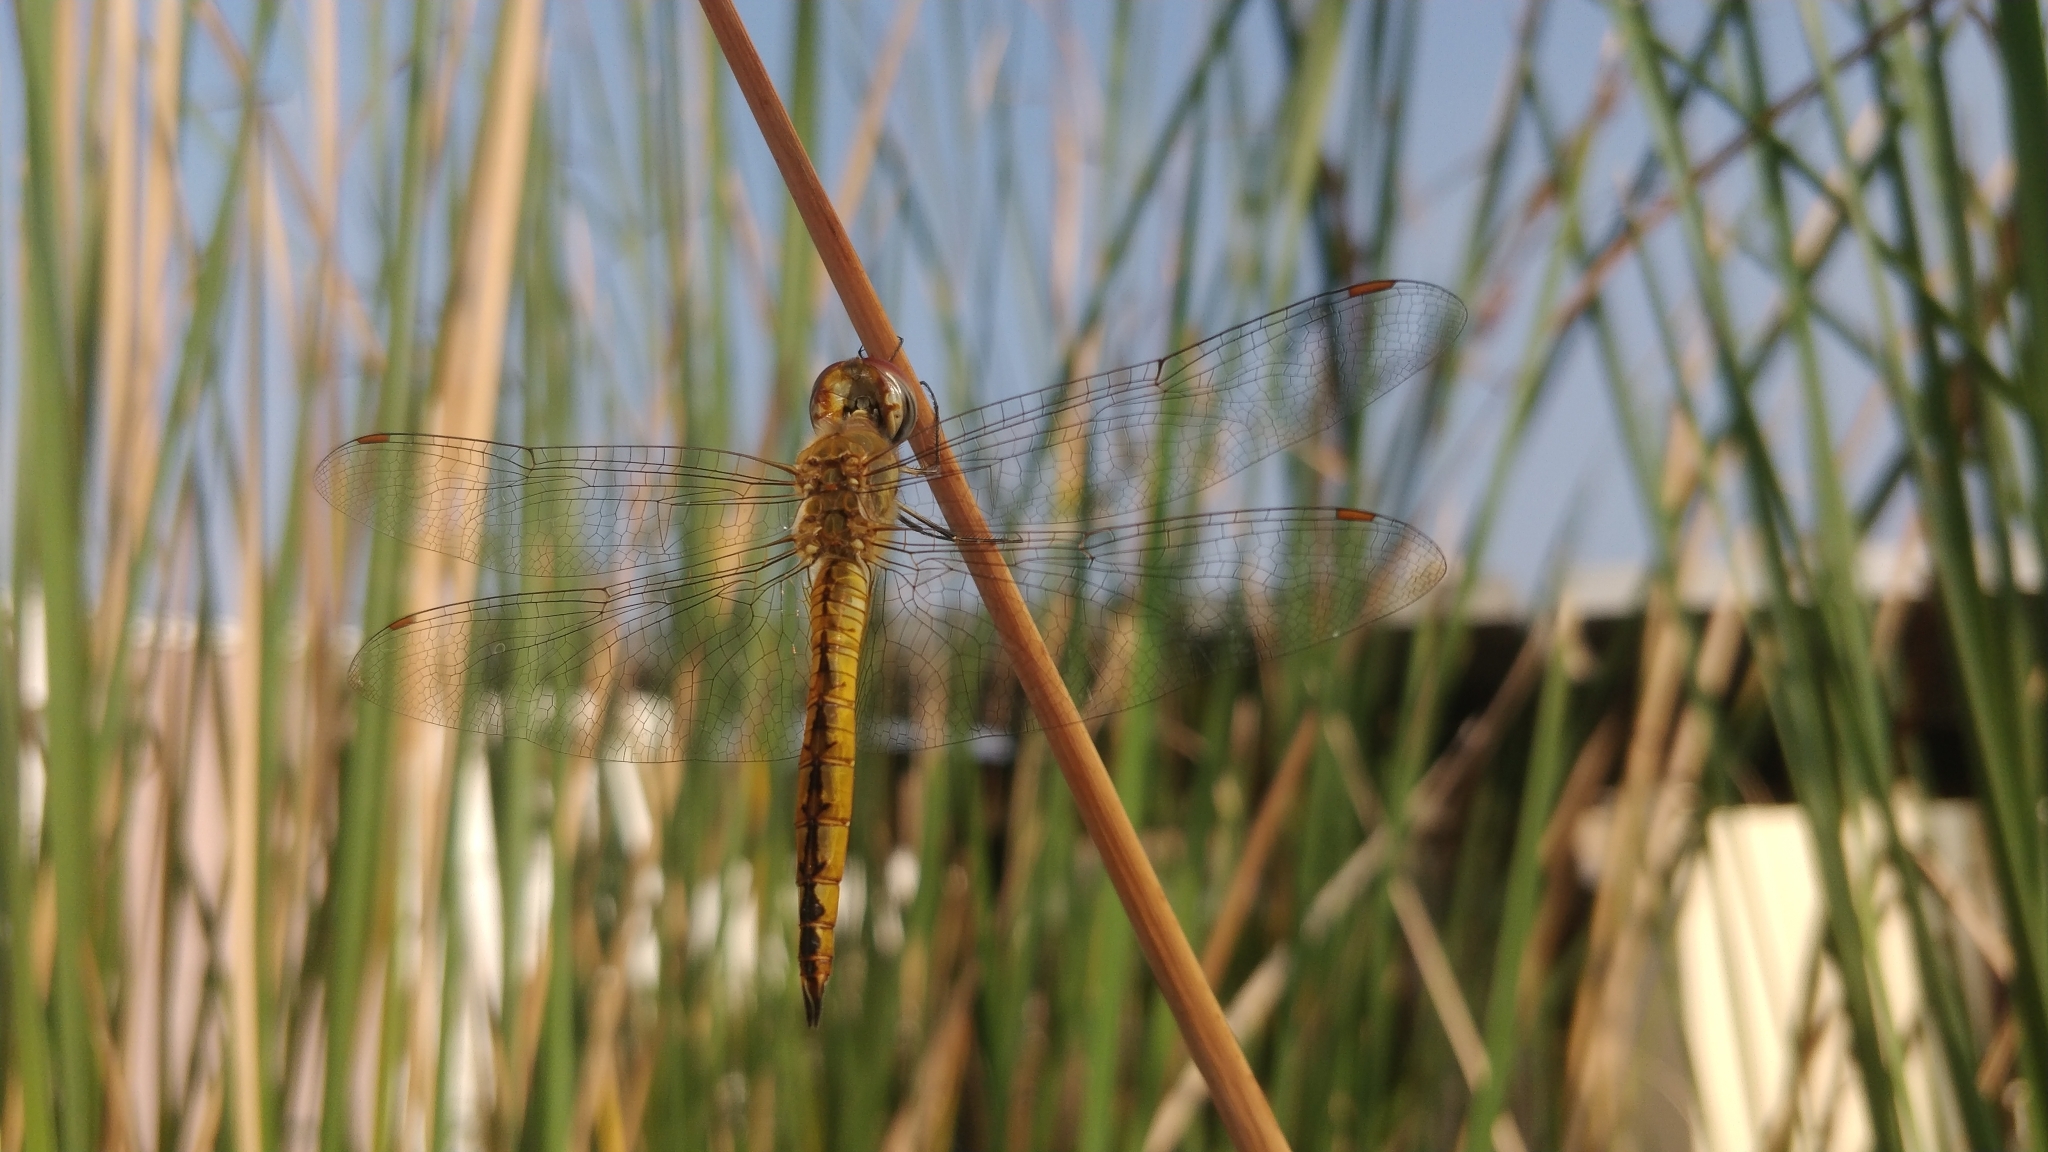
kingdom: Animalia
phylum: Arthropoda
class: Insecta
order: Odonata
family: Libellulidae
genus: Pantala
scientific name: Pantala flavescens
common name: Wandering glider
